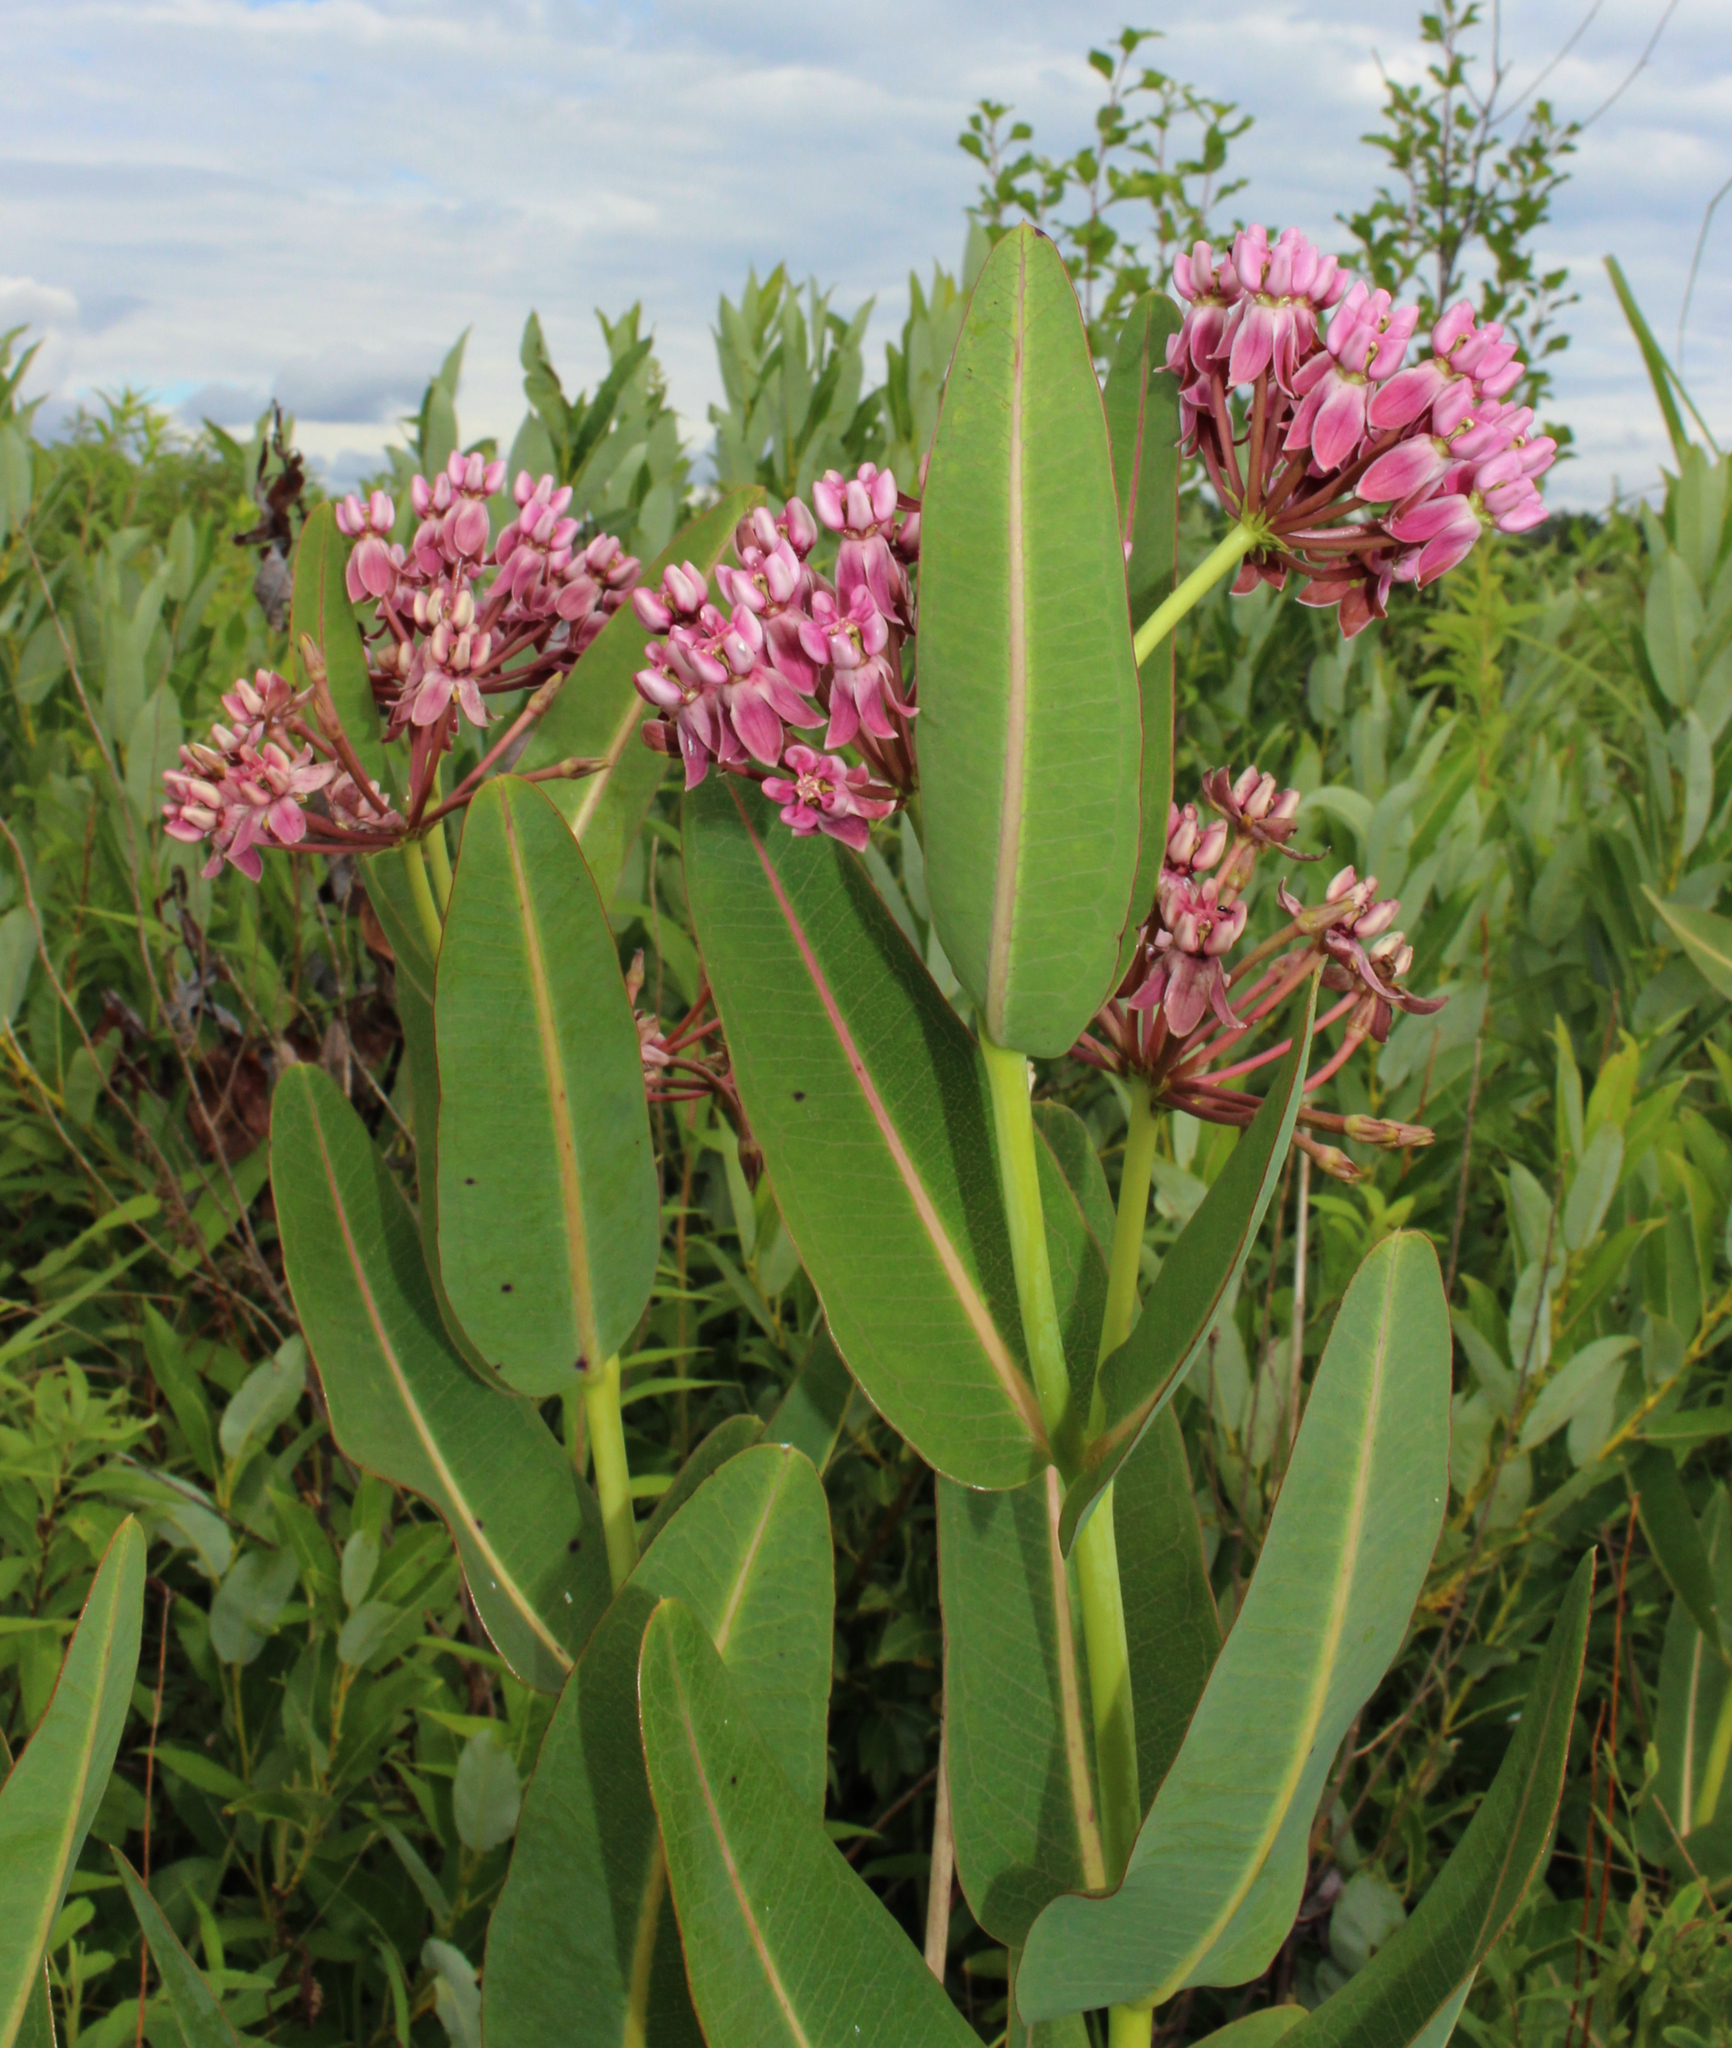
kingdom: Plantae
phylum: Tracheophyta
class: Magnoliopsida
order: Gentianales
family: Apocynaceae
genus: Asclepias
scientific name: Asclepias sullivantii
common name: Prairie milkweed
